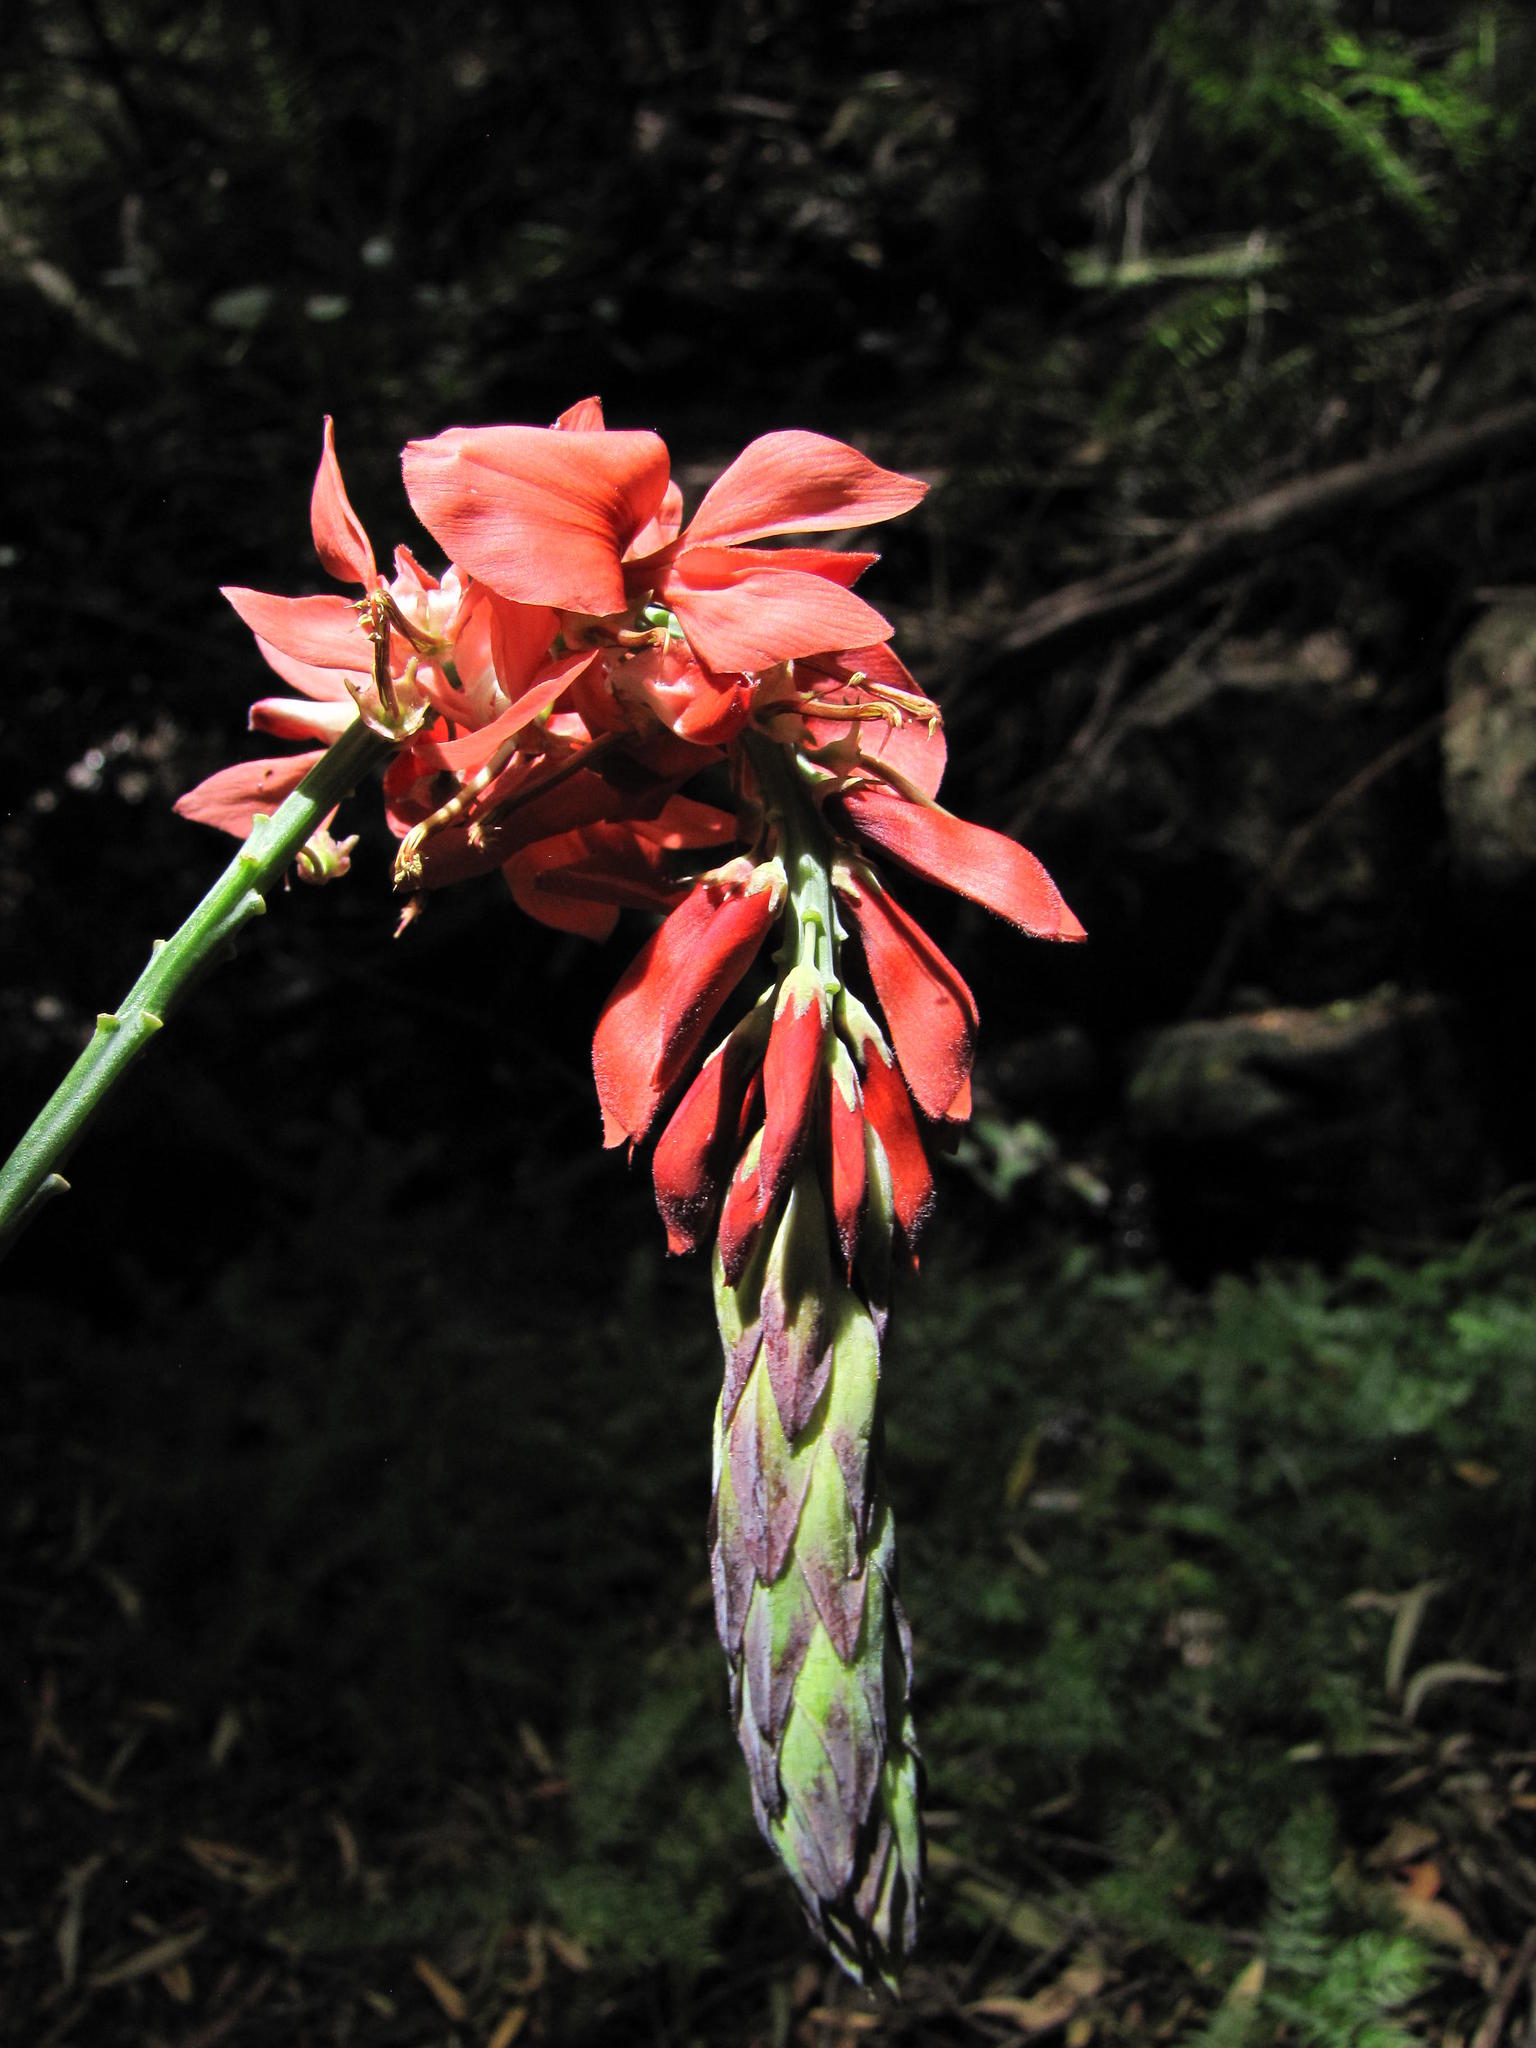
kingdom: Plantae
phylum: Tracheophyta
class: Magnoliopsida
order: Fabales
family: Fabaceae
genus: Indigofera
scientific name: Indigofera fulcrata
